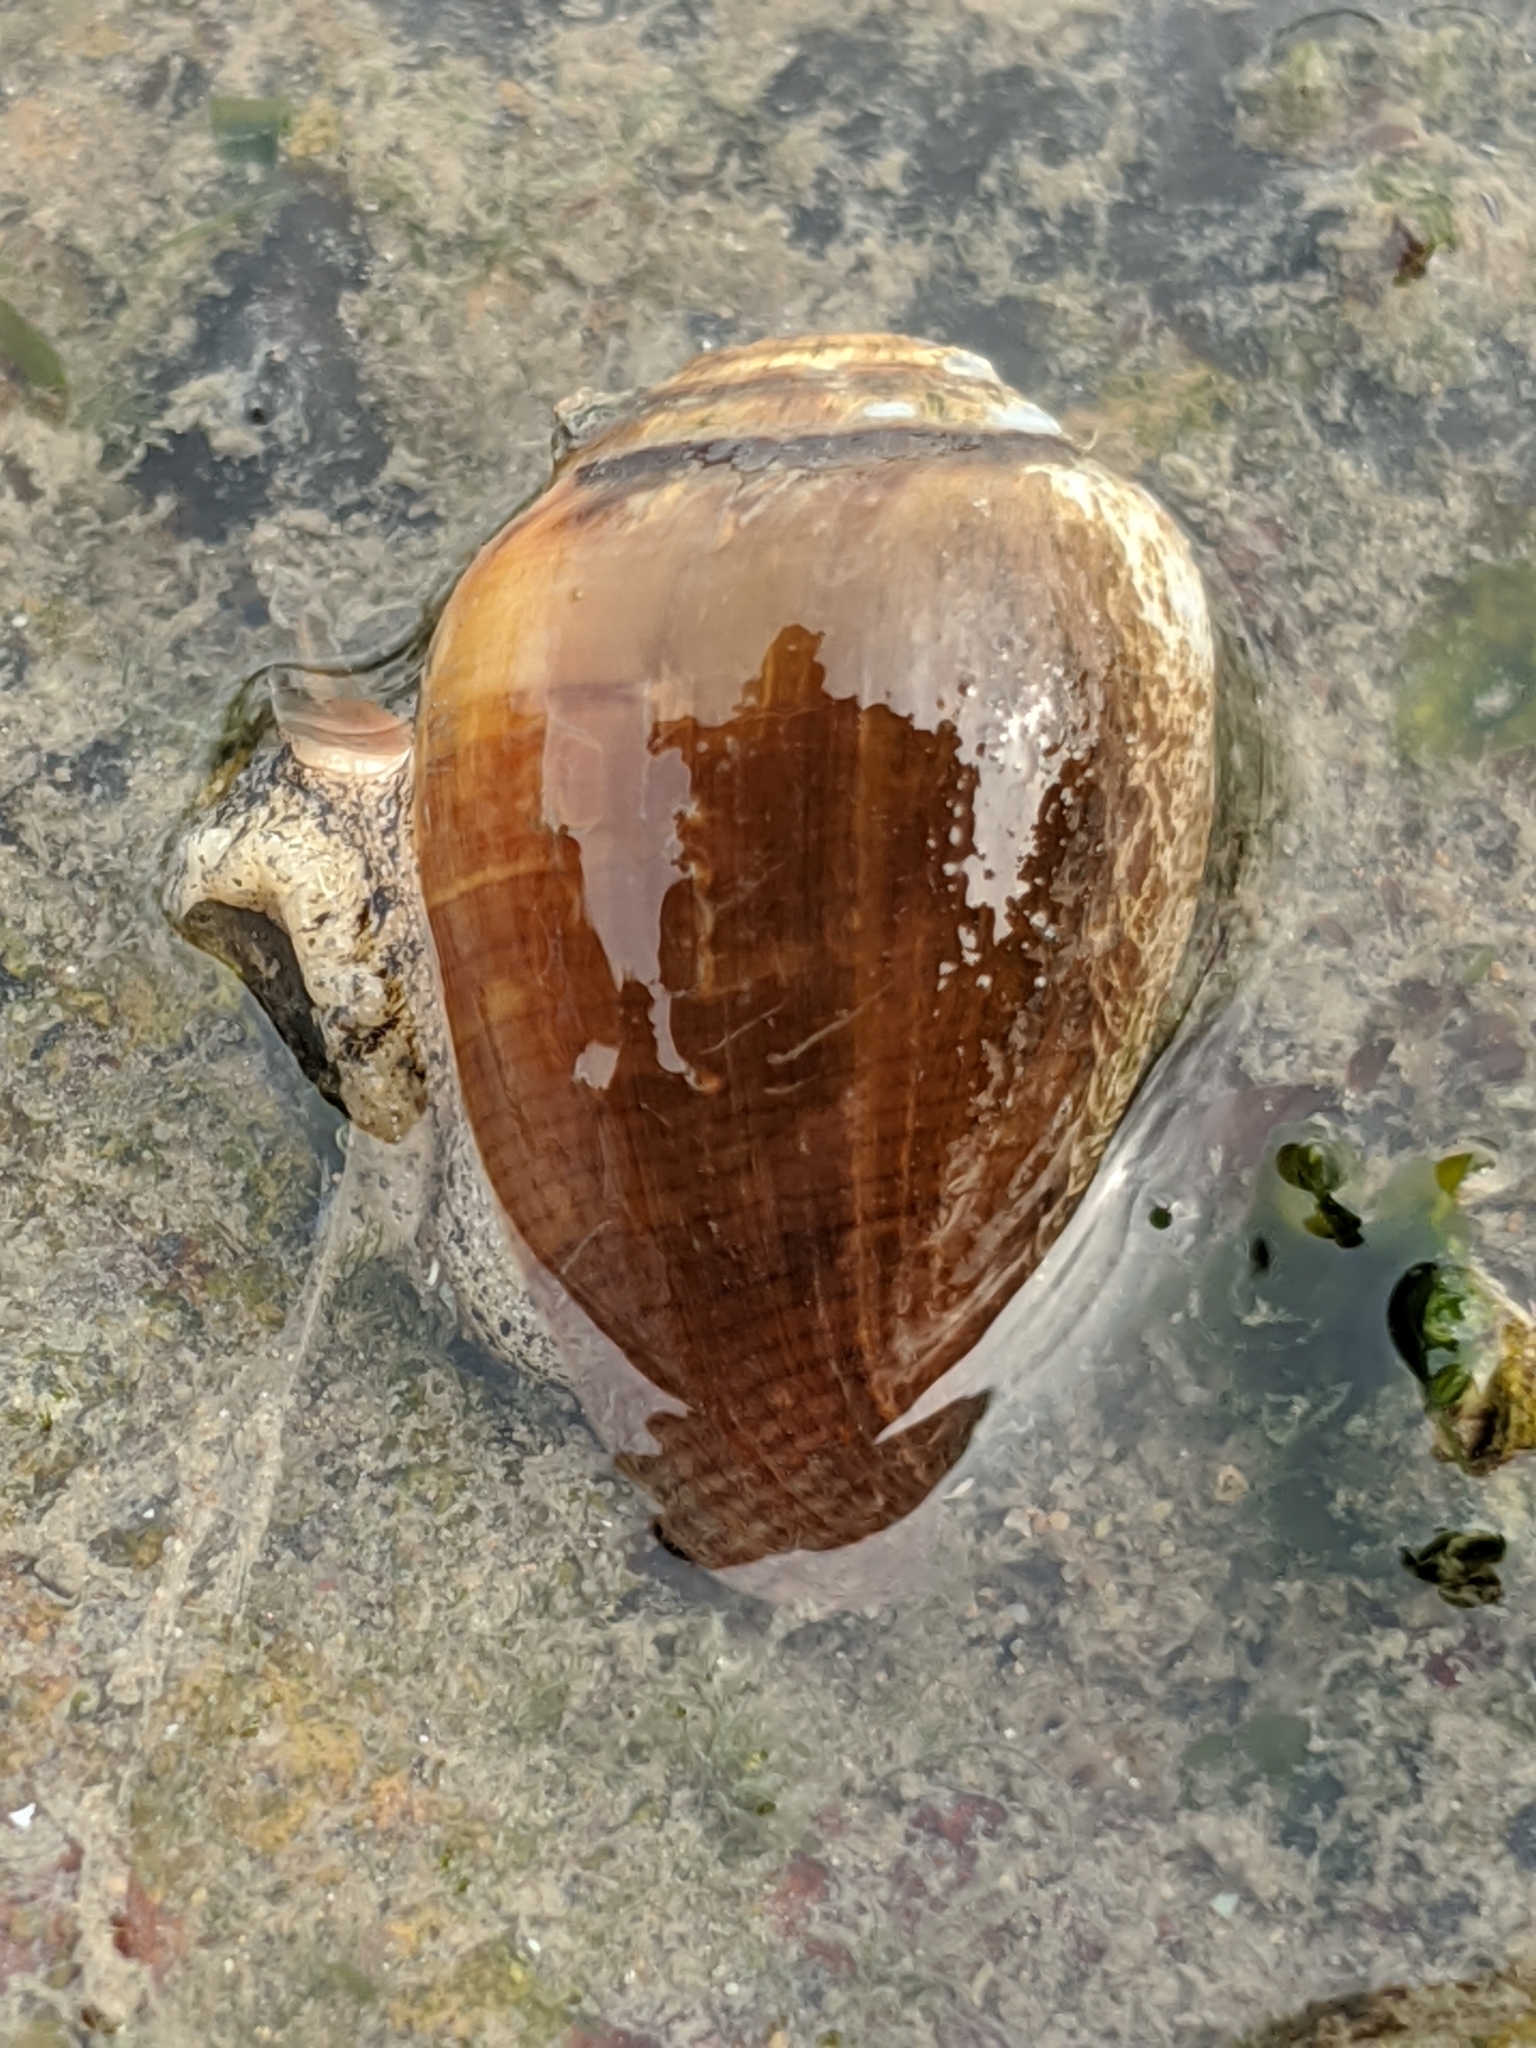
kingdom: Animalia
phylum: Mollusca
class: Gastropoda
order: Neogastropoda
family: Conidae
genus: Californiconus
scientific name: Californiconus californicus
